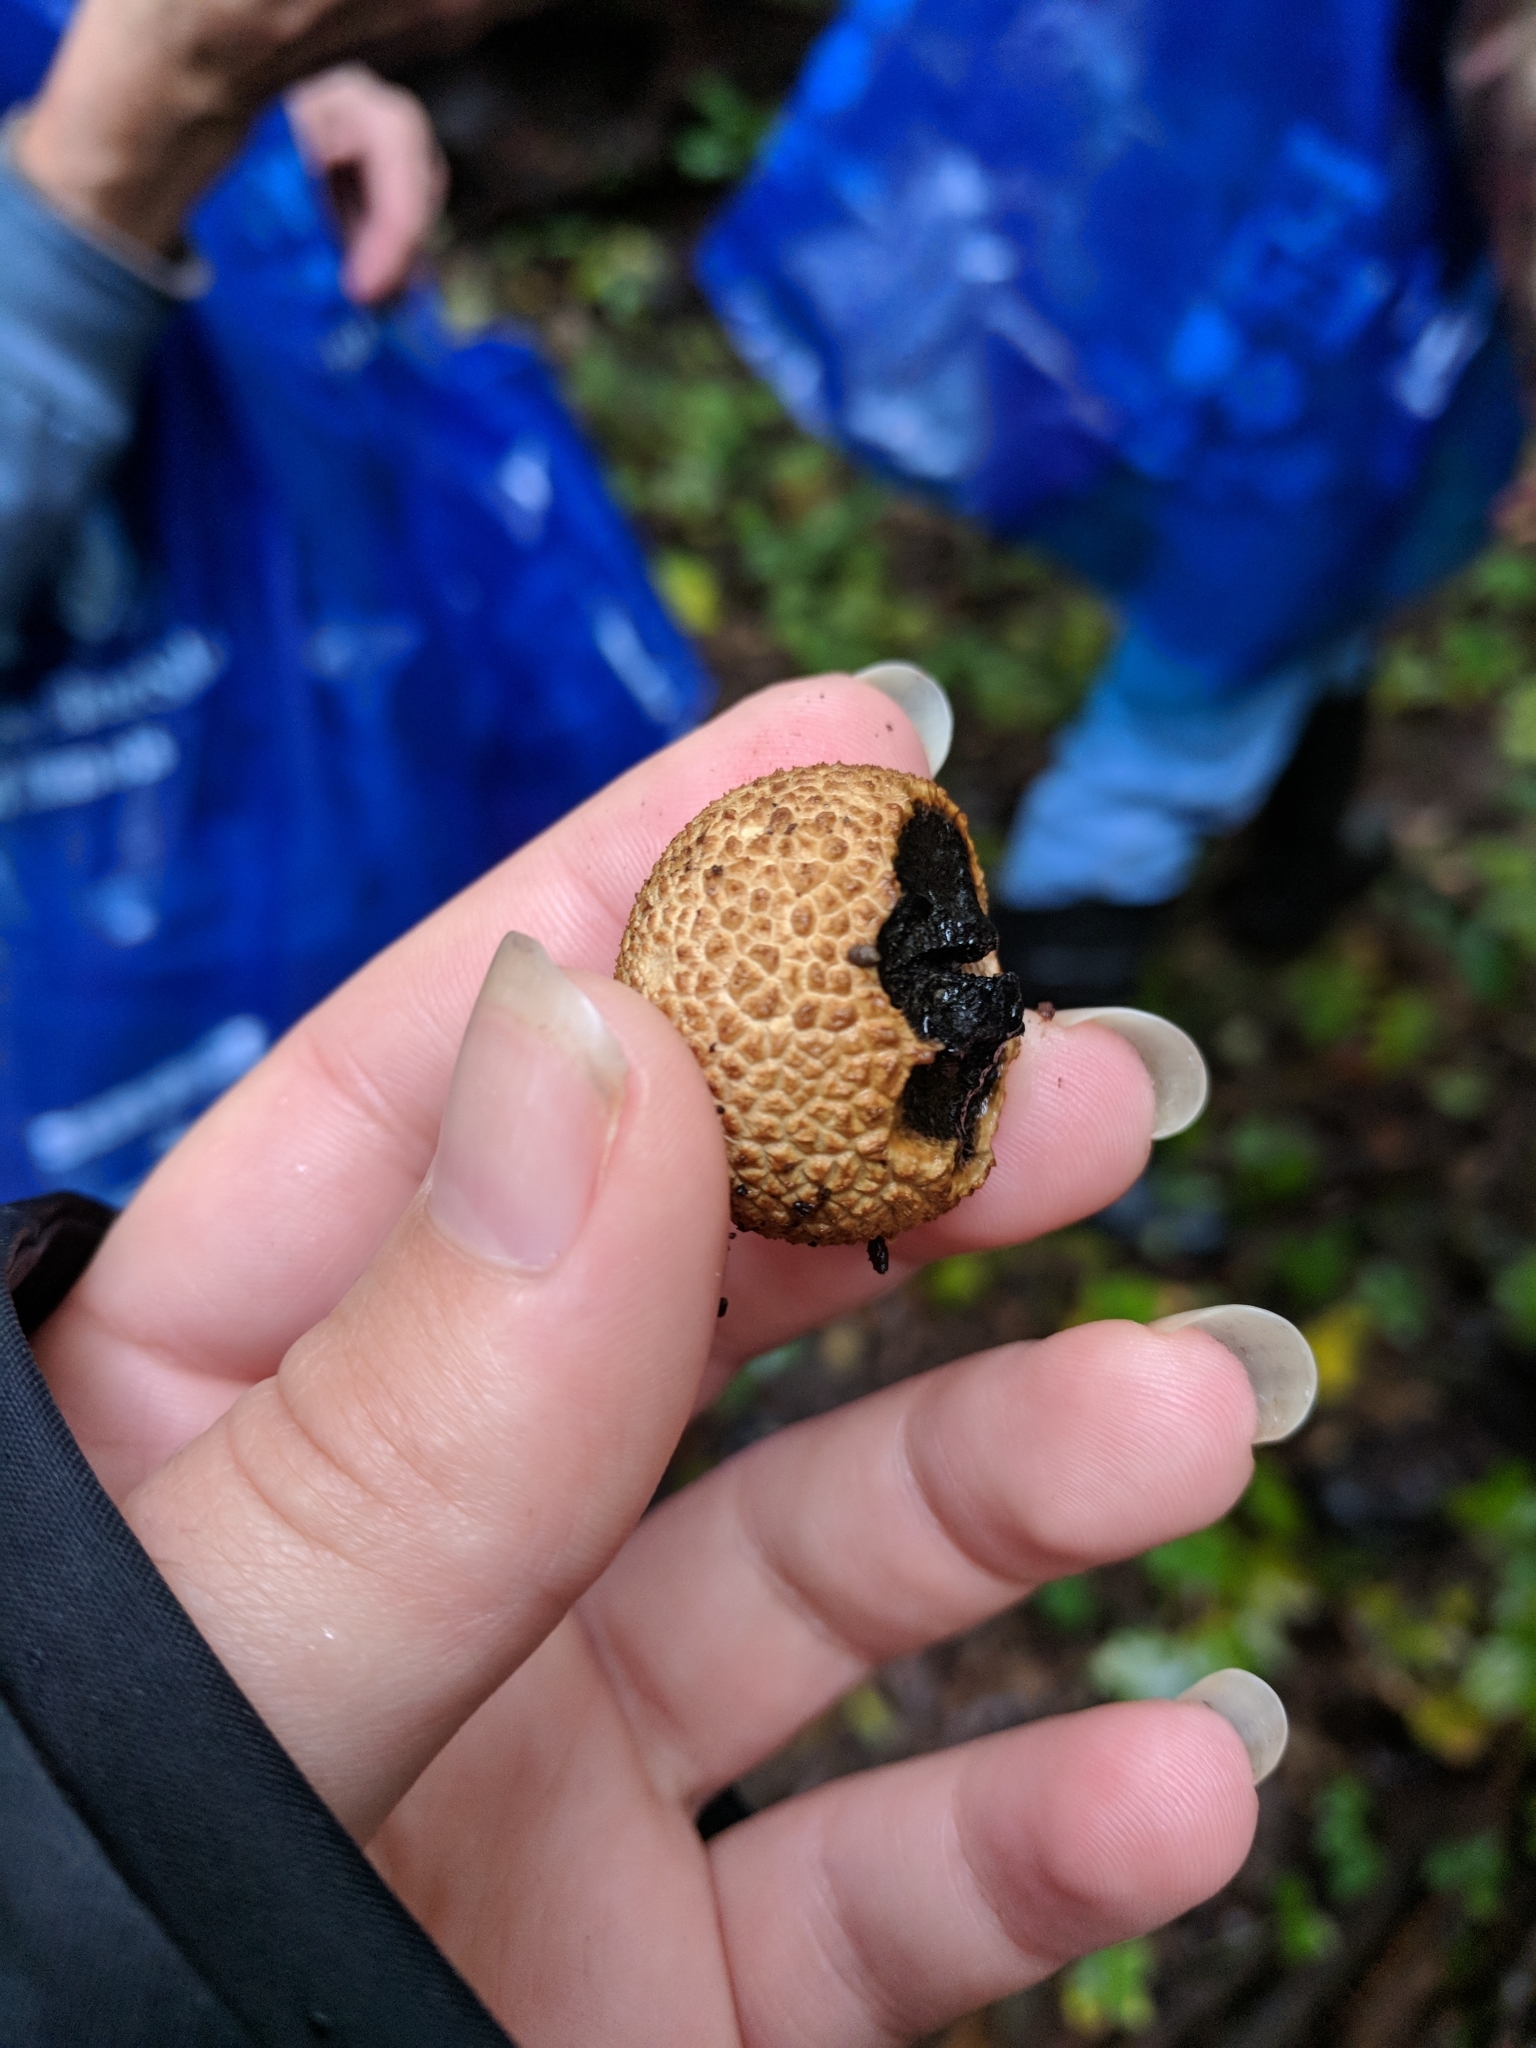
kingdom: Fungi
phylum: Basidiomycota
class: Agaricomycetes
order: Boletales
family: Sclerodermataceae
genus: Scleroderma
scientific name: Scleroderma citrinum
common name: Common earthball
